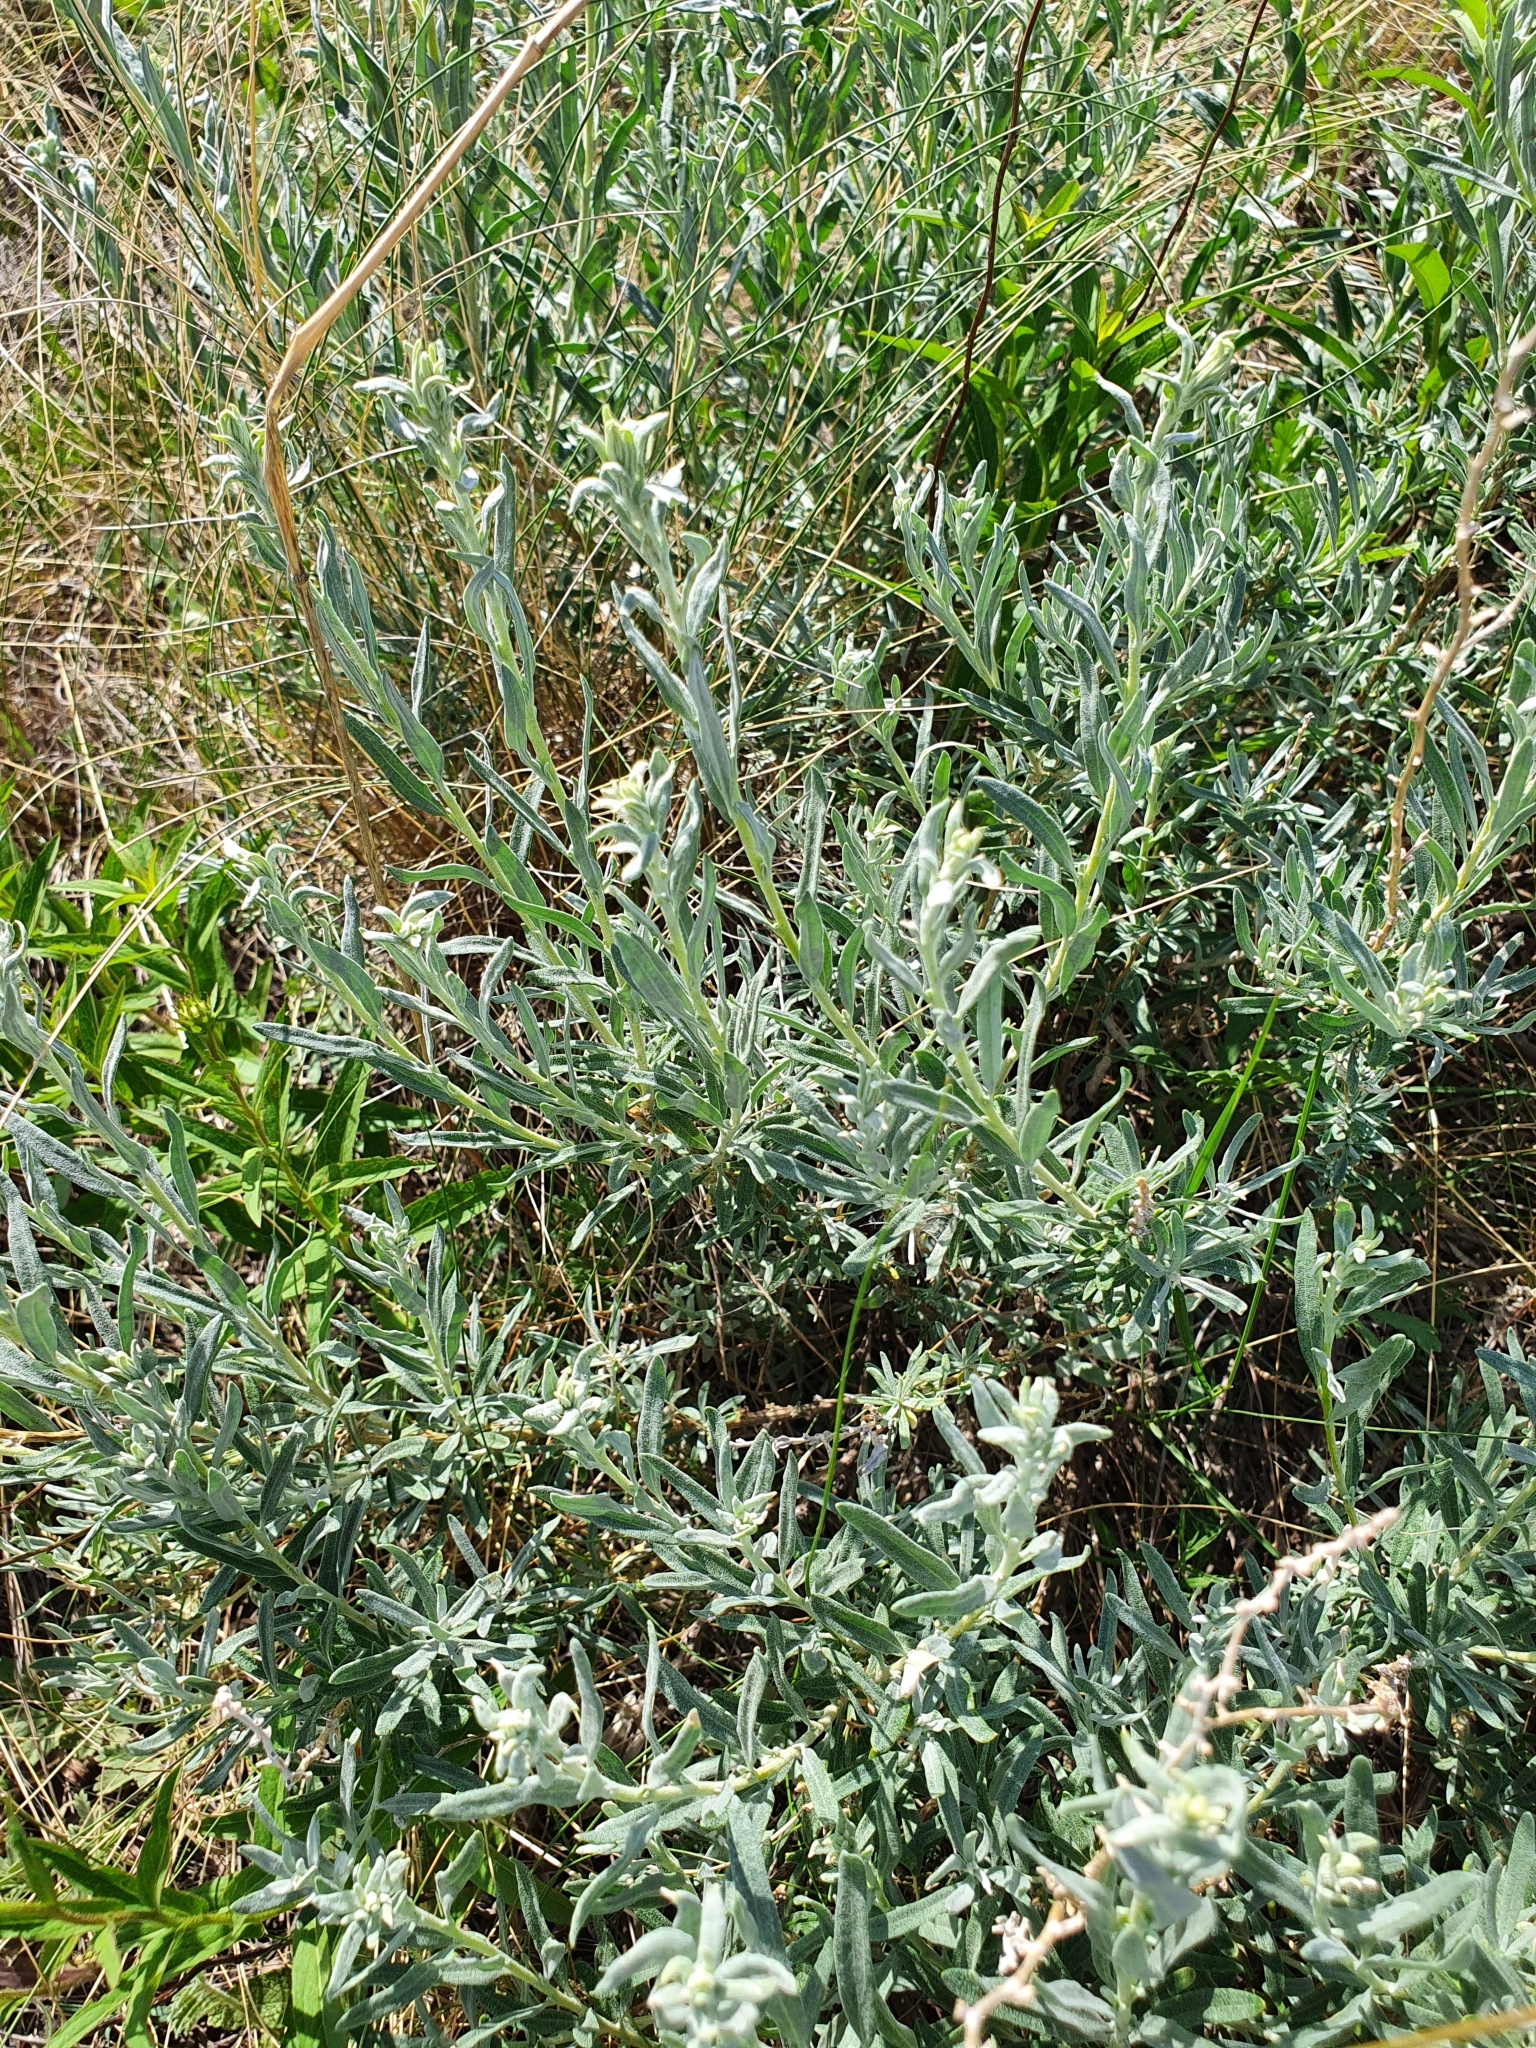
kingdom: Plantae
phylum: Tracheophyta
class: Magnoliopsida
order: Caryophyllales
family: Amaranthaceae
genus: Krascheninnikovia
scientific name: Krascheninnikovia ceratoides
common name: Pamirian winterfat
